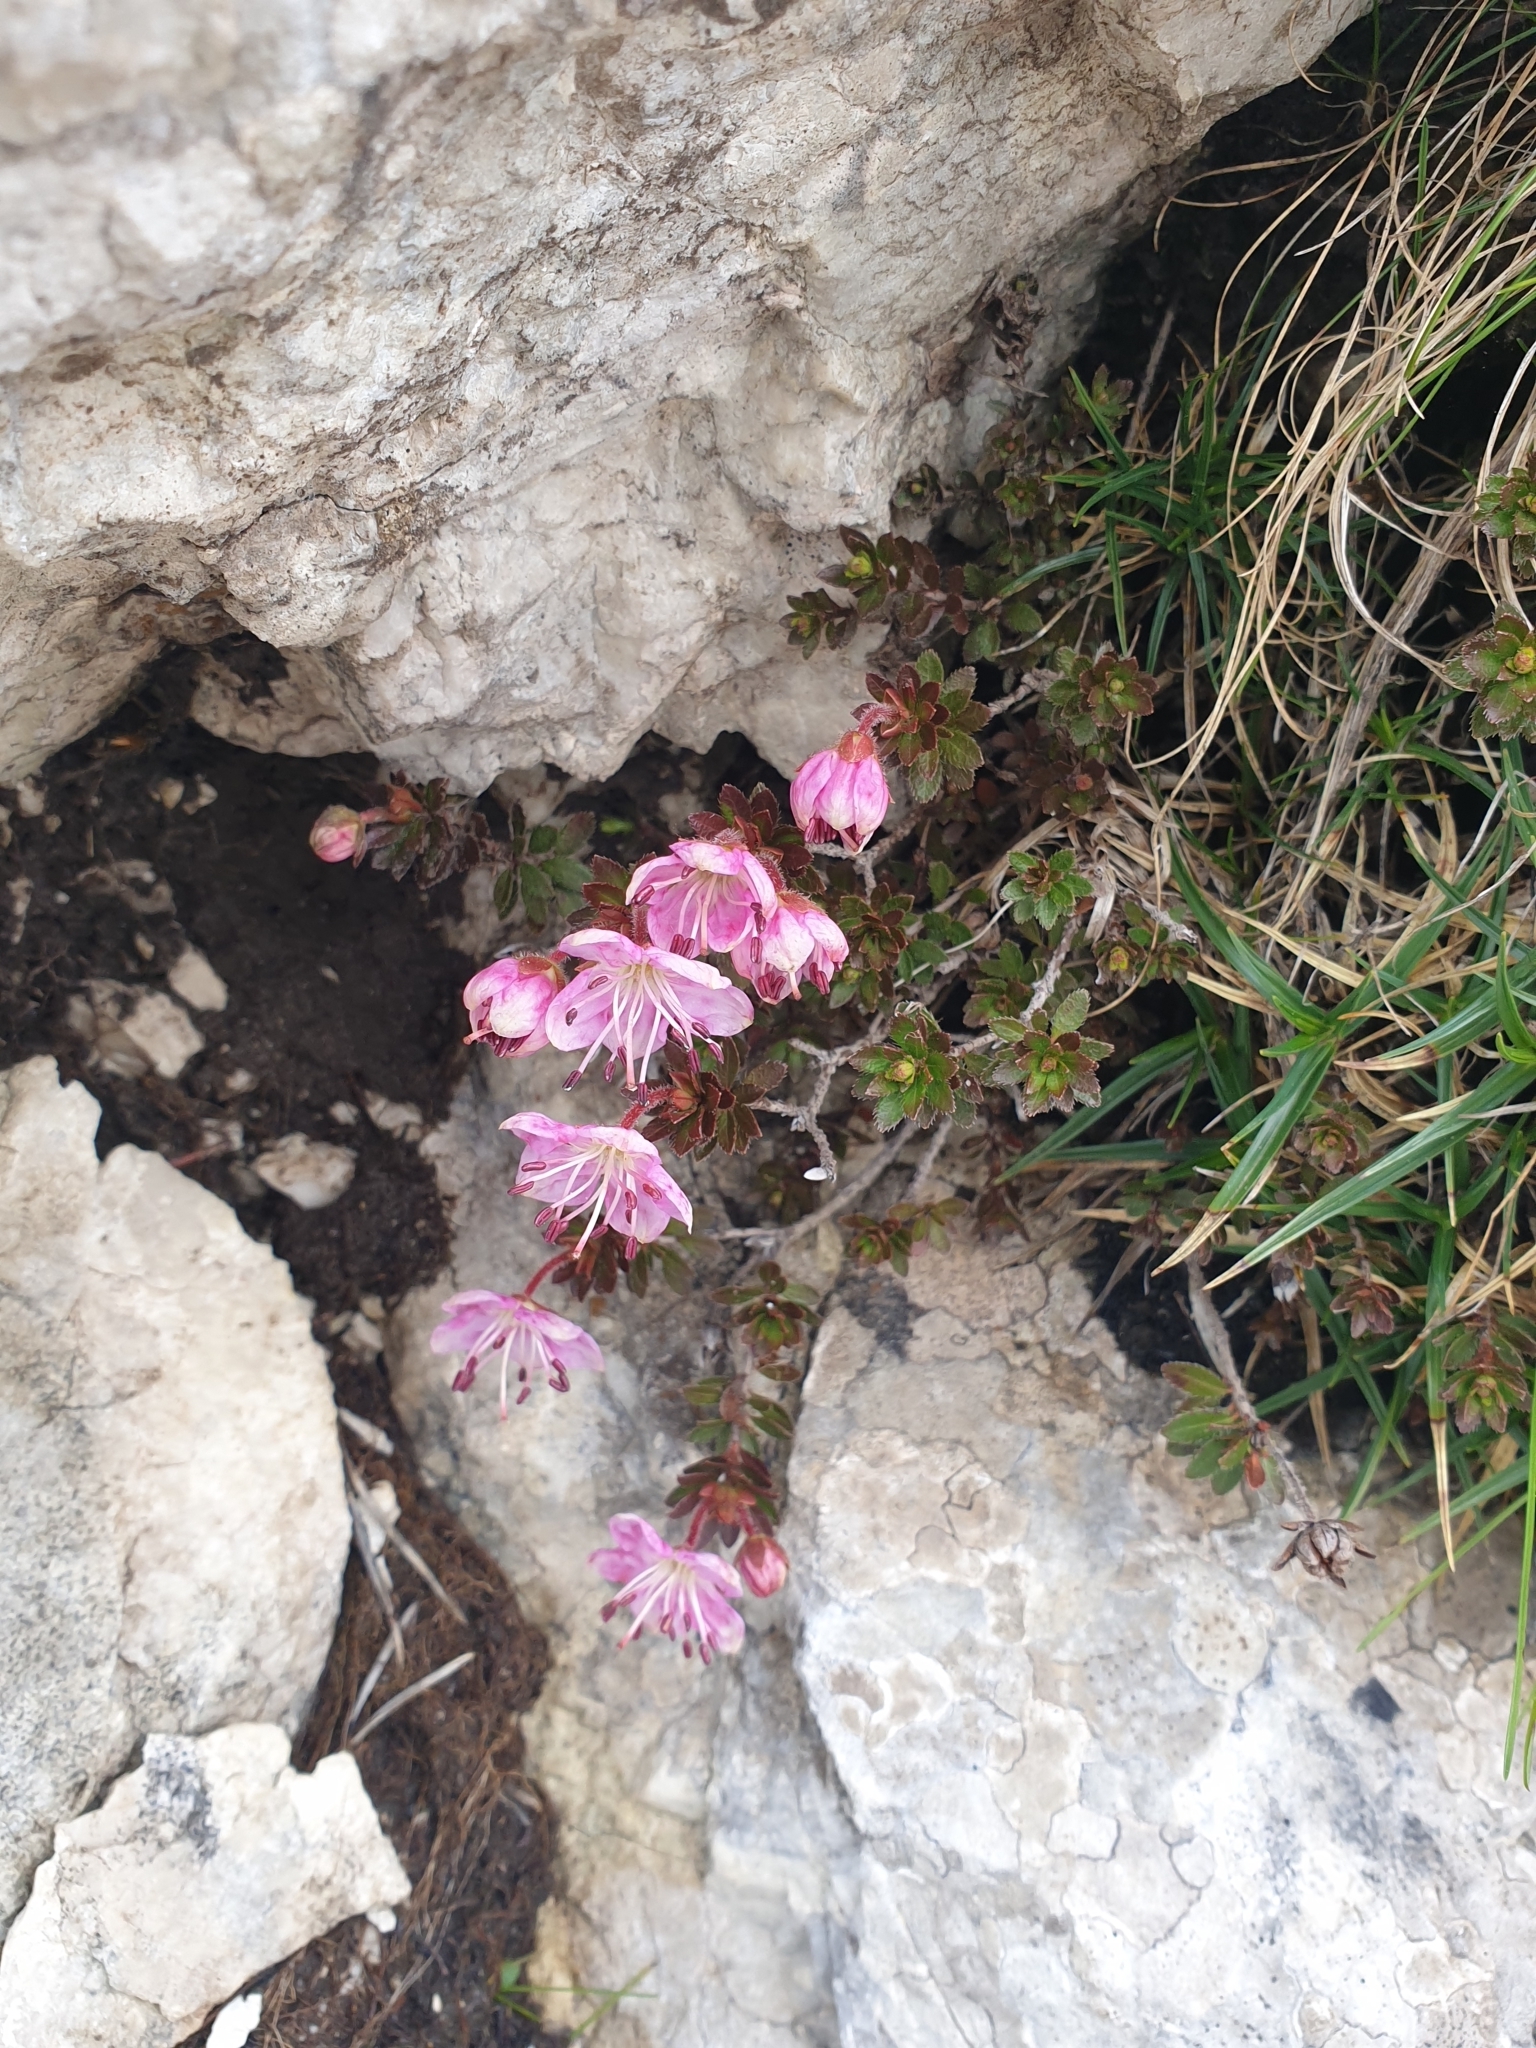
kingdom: Plantae
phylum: Tracheophyta
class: Magnoliopsida
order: Ericales
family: Ericaceae
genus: Rhodothamnus
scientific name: Rhodothamnus chamaecistus
